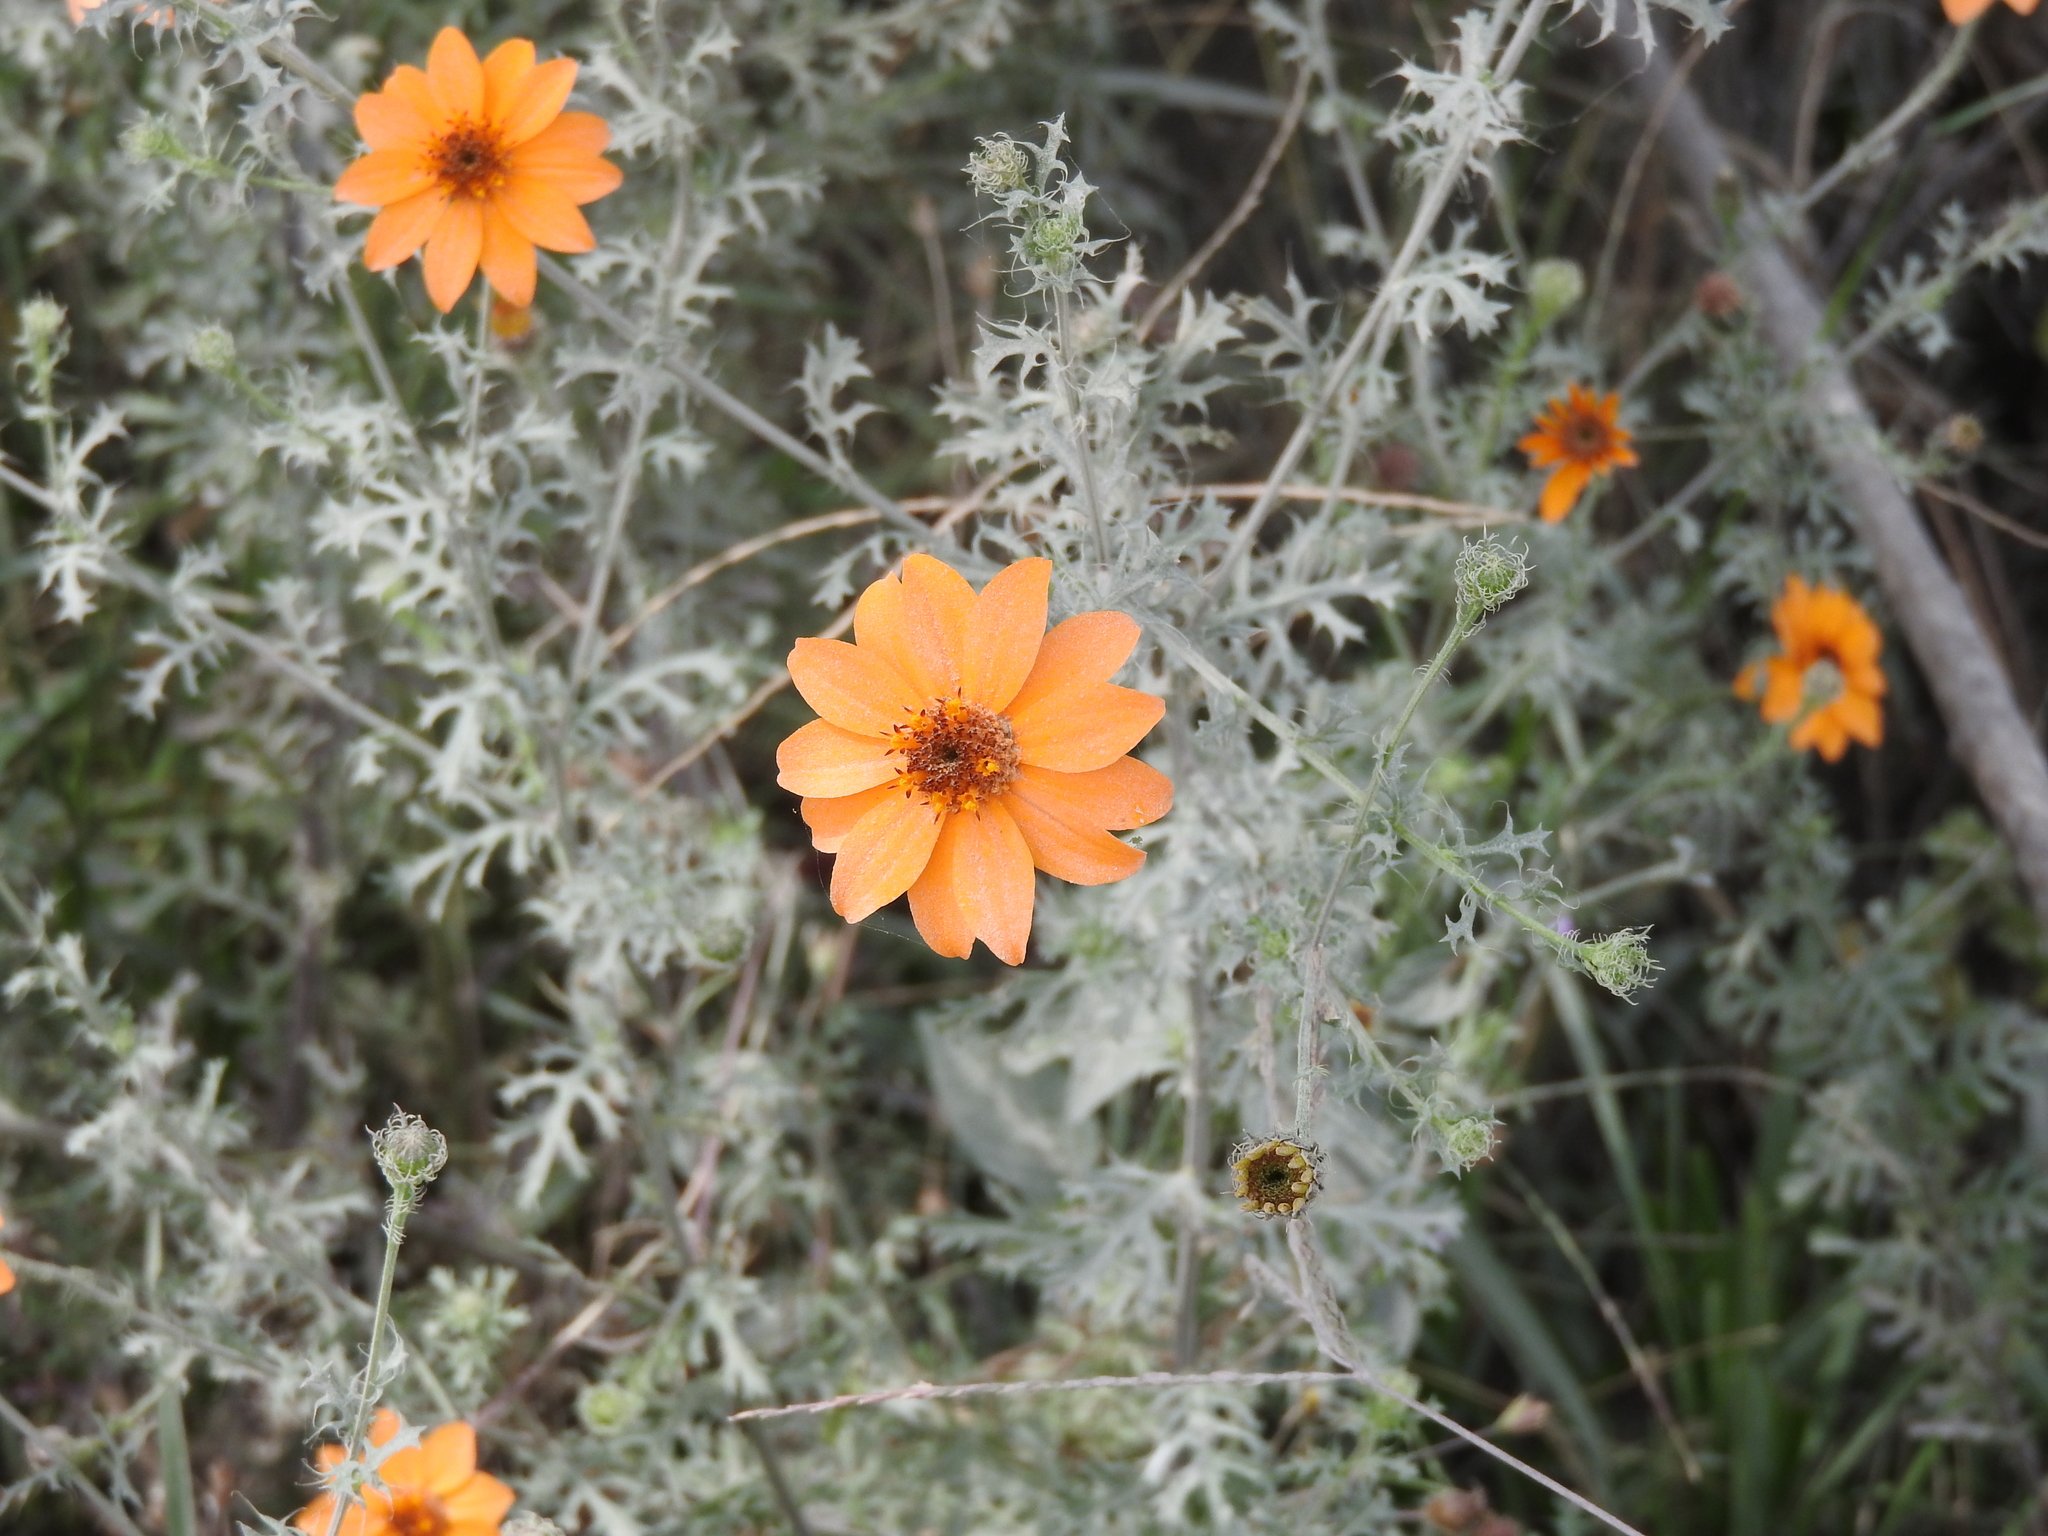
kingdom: Plantae
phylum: Tracheophyta
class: Magnoliopsida
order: Asterales
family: Asteraceae
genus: Adenophyllum
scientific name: Adenophyllum cancellatum
